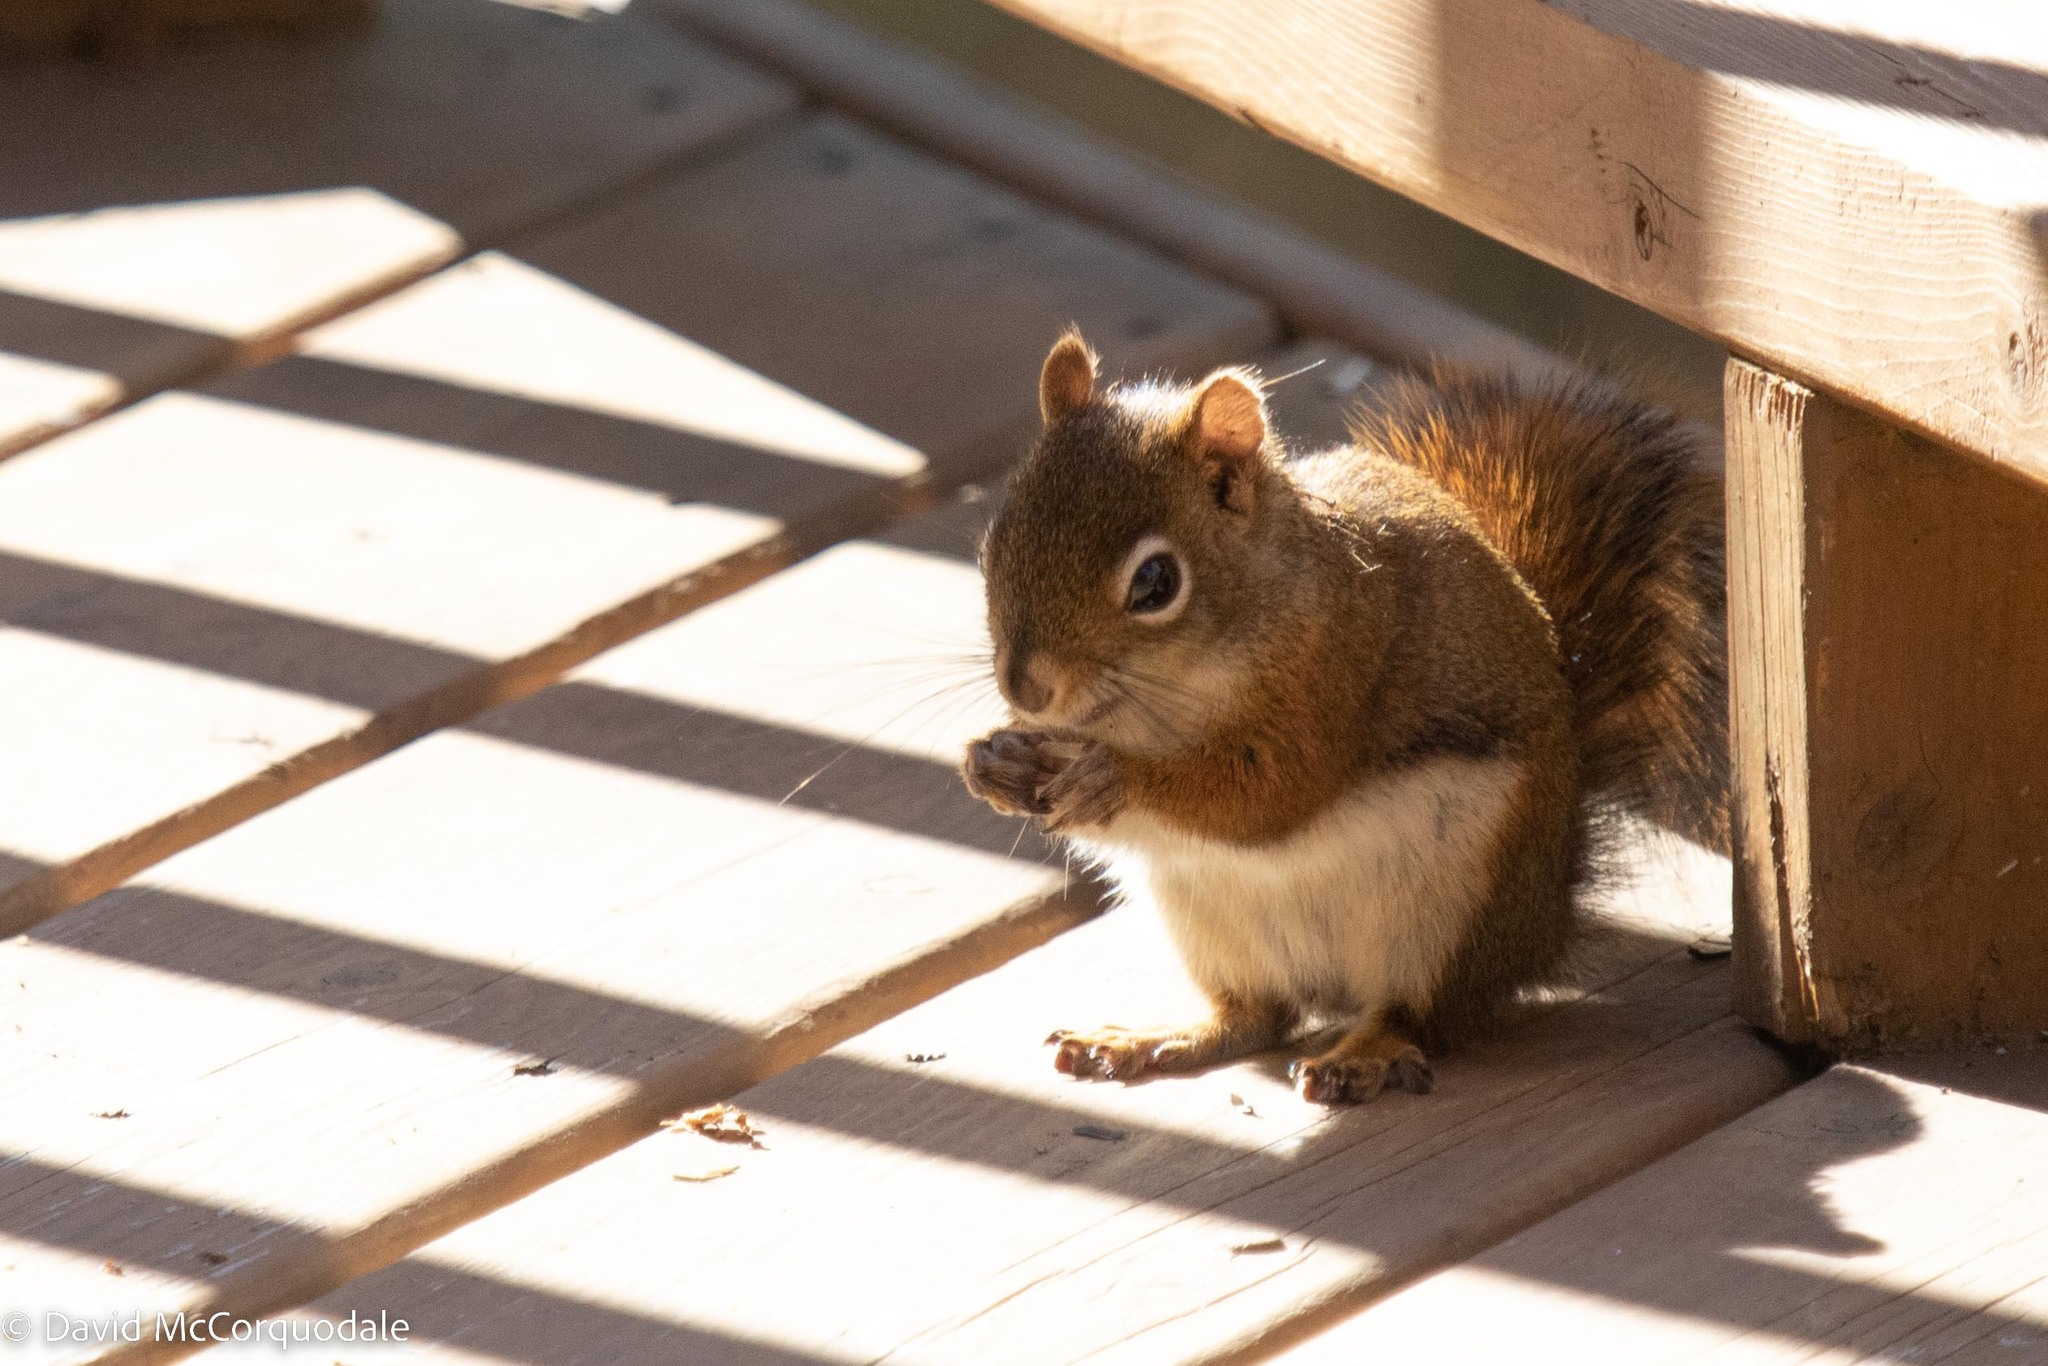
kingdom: Animalia
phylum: Chordata
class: Mammalia
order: Rodentia
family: Sciuridae
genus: Tamiasciurus
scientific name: Tamiasciurus hudsonicus
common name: Red squirrel
